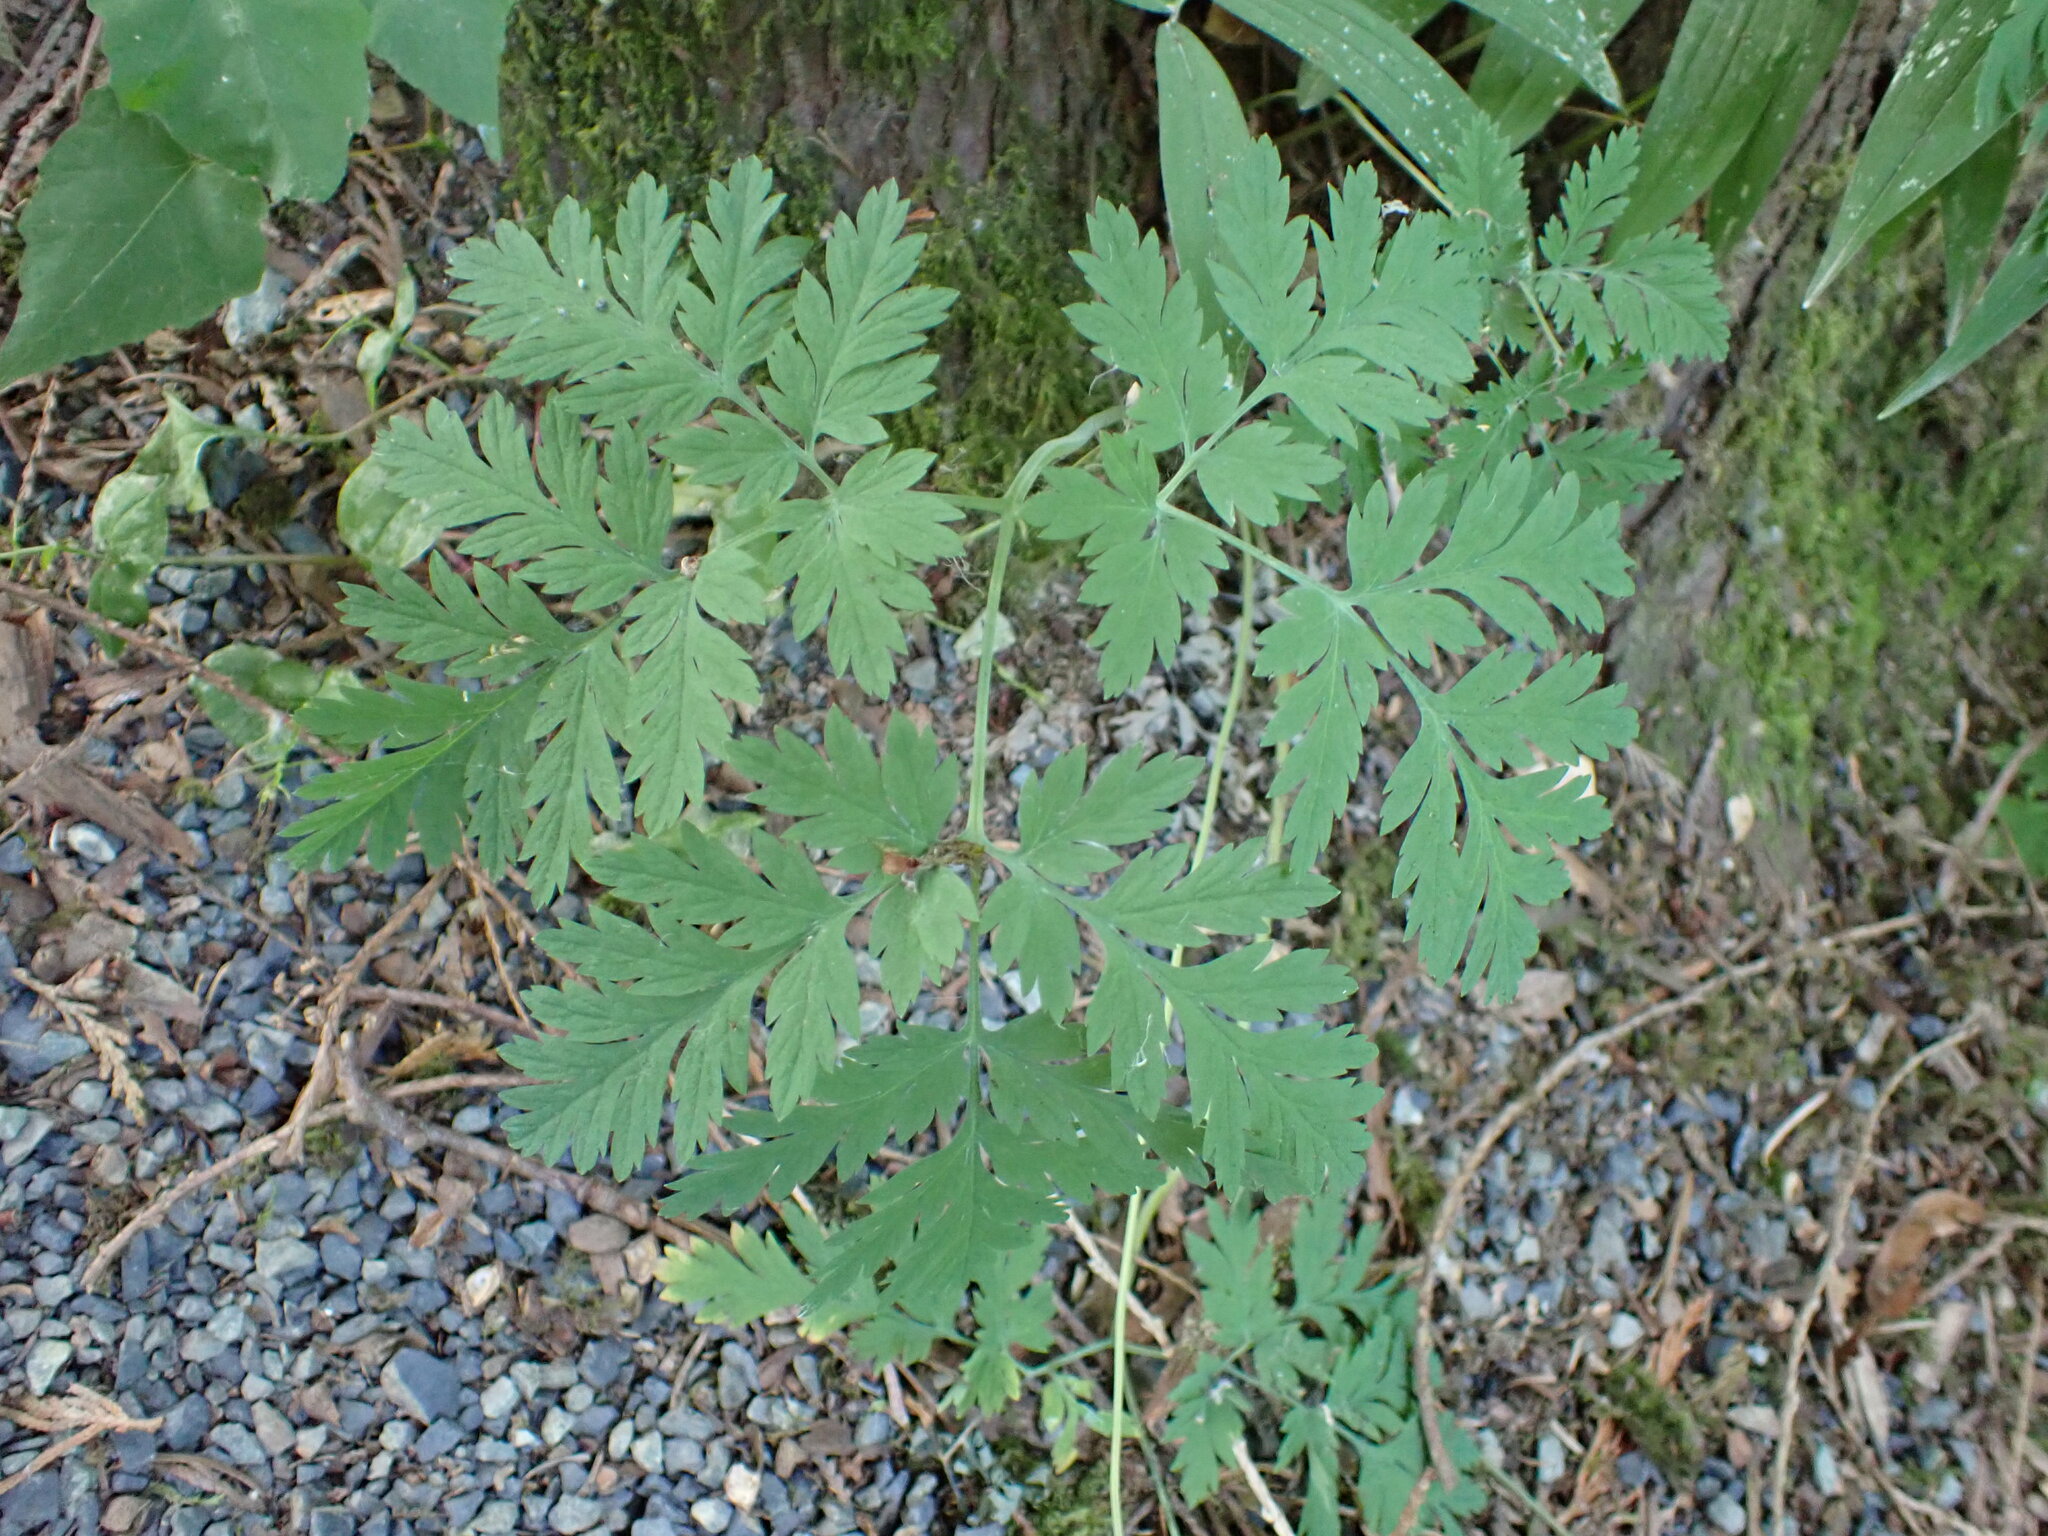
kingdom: Plantae
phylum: Tracheophyta
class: Magnoliopsida
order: Ranunculales
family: Papaveraceae
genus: Dicentra
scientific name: Dicentra formosa
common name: Bleeding-heart
